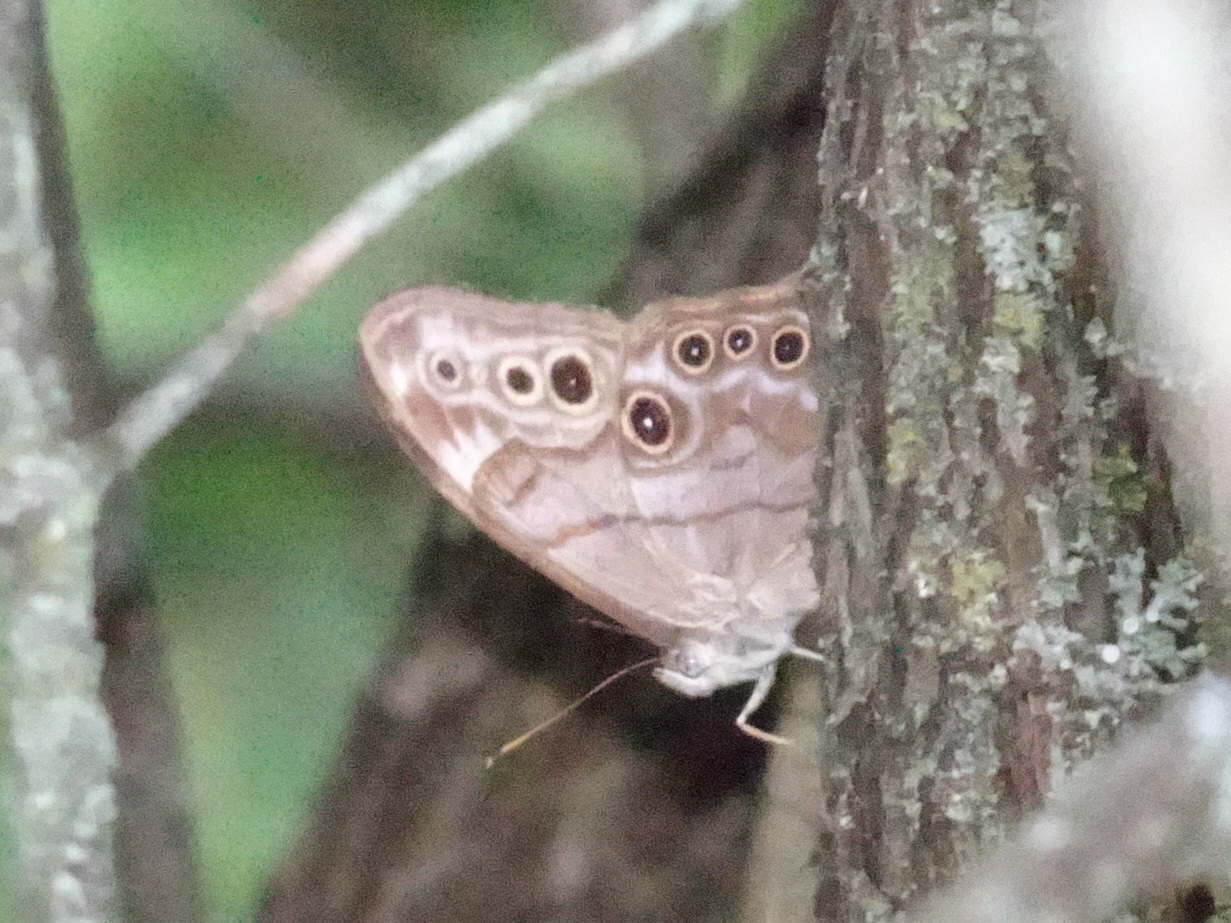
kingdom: Animalia
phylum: Arthropoda
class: Insecta
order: Lepidoptera
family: Nymphalidae
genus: Lethe
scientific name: Lethe anthedon
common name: Northern pearly-eye
